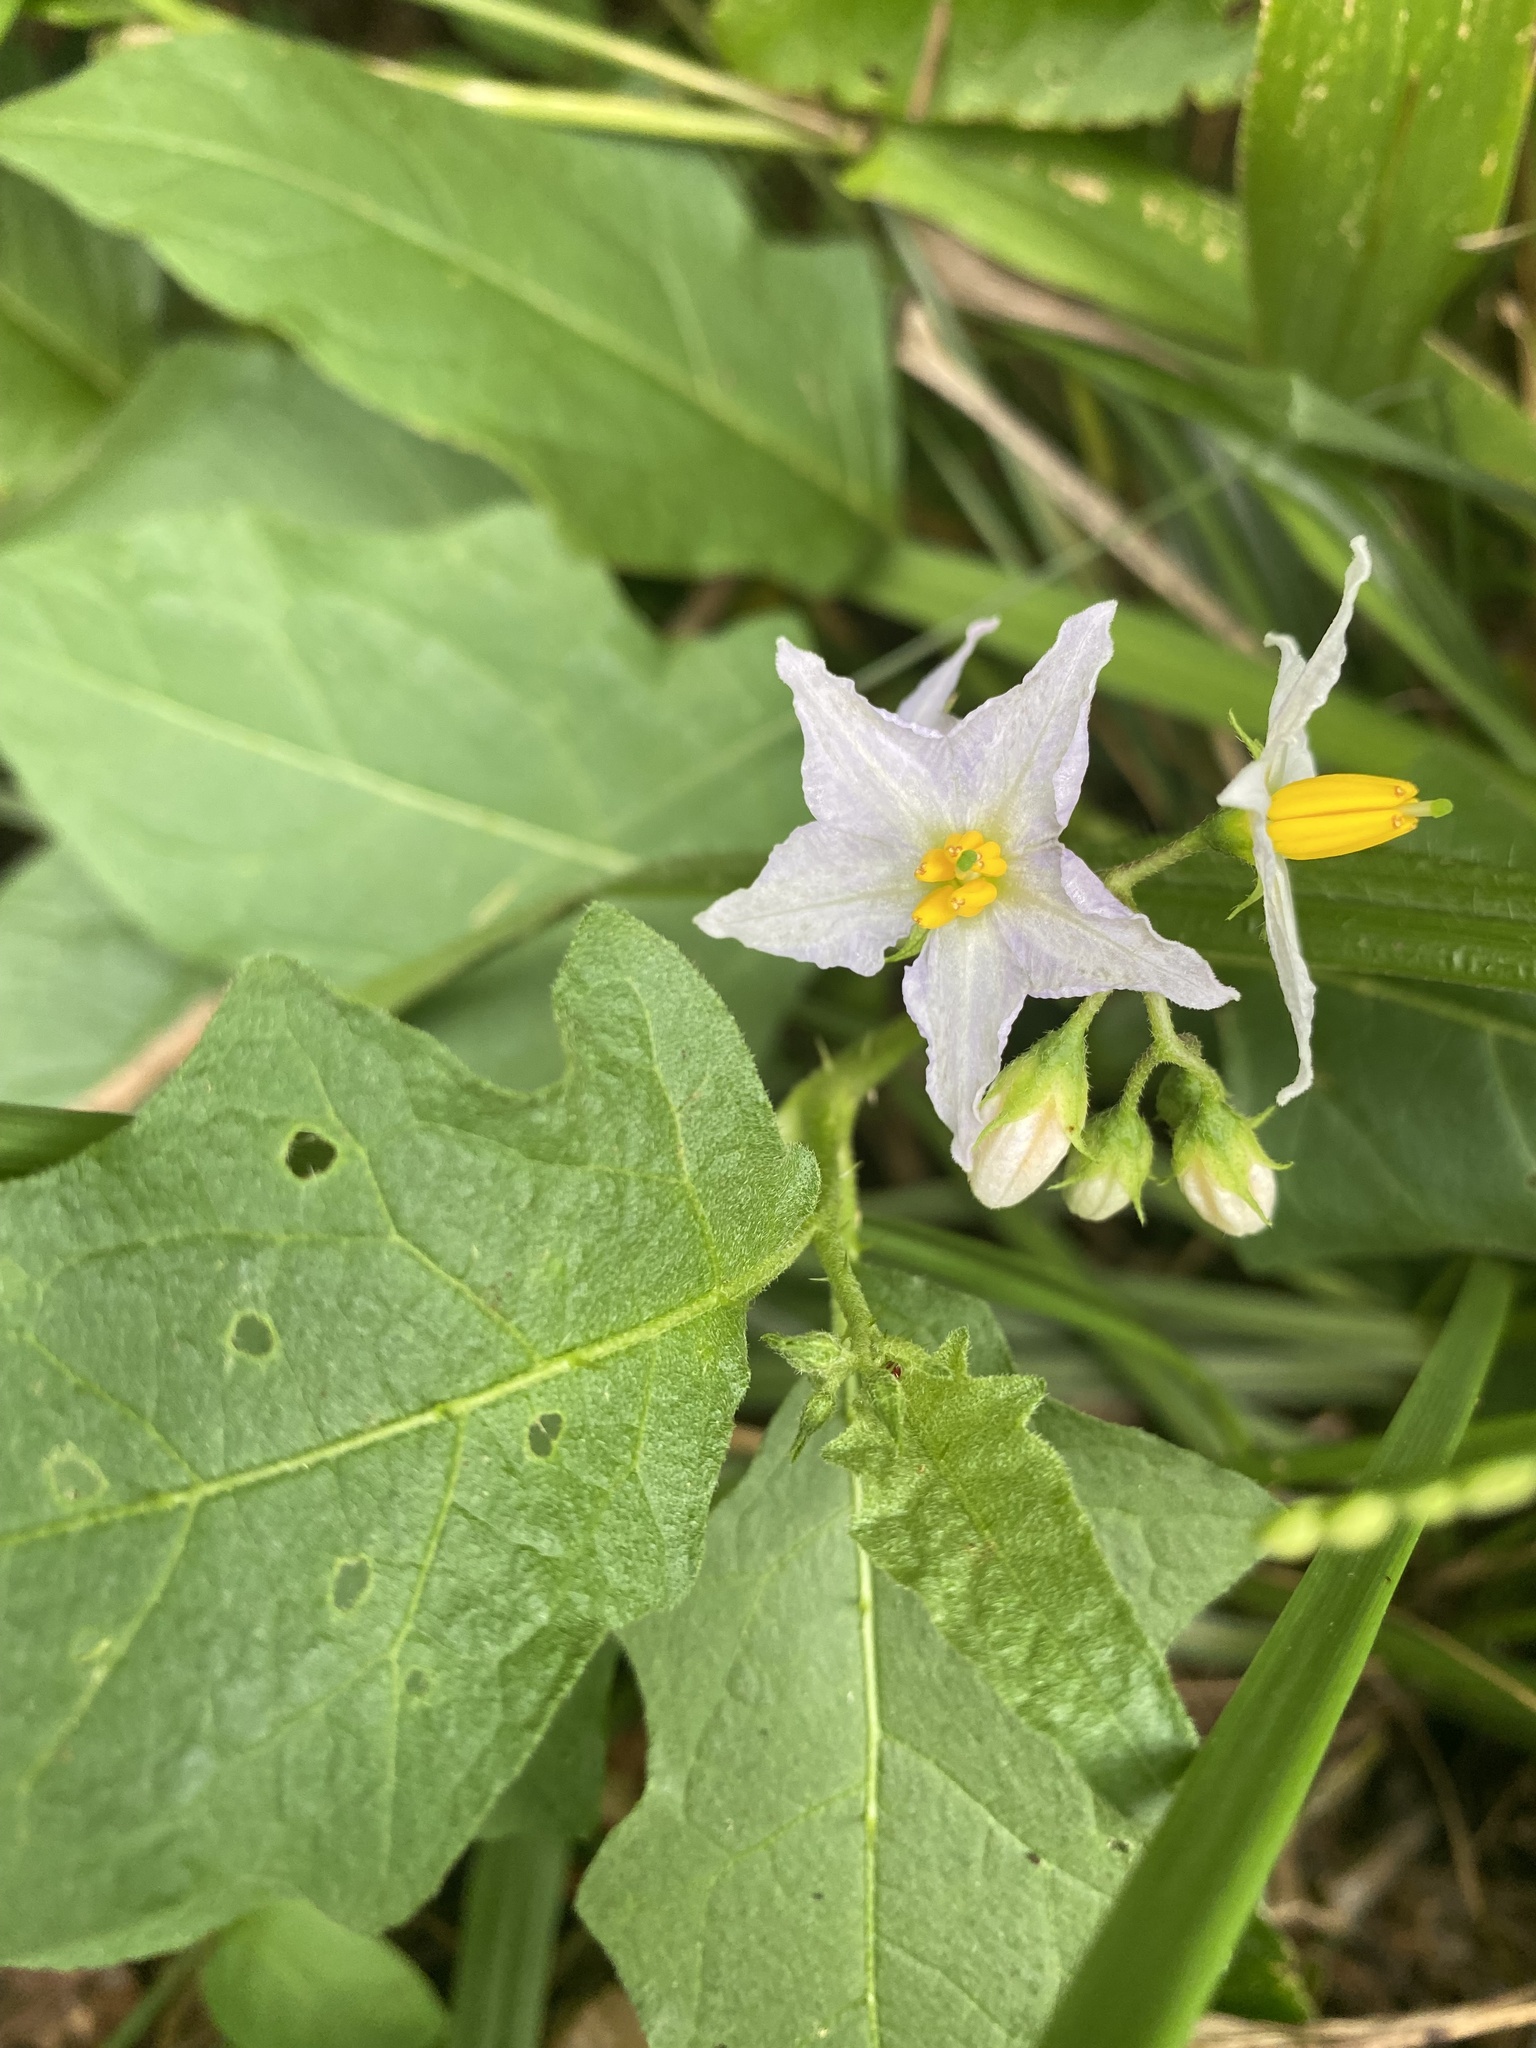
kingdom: Plantae
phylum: Tracheophyta
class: Magnoliopsida
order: Solanales
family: Solanaceae
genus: Solanum
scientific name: Solanum carolinense
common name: Horse-nettle
